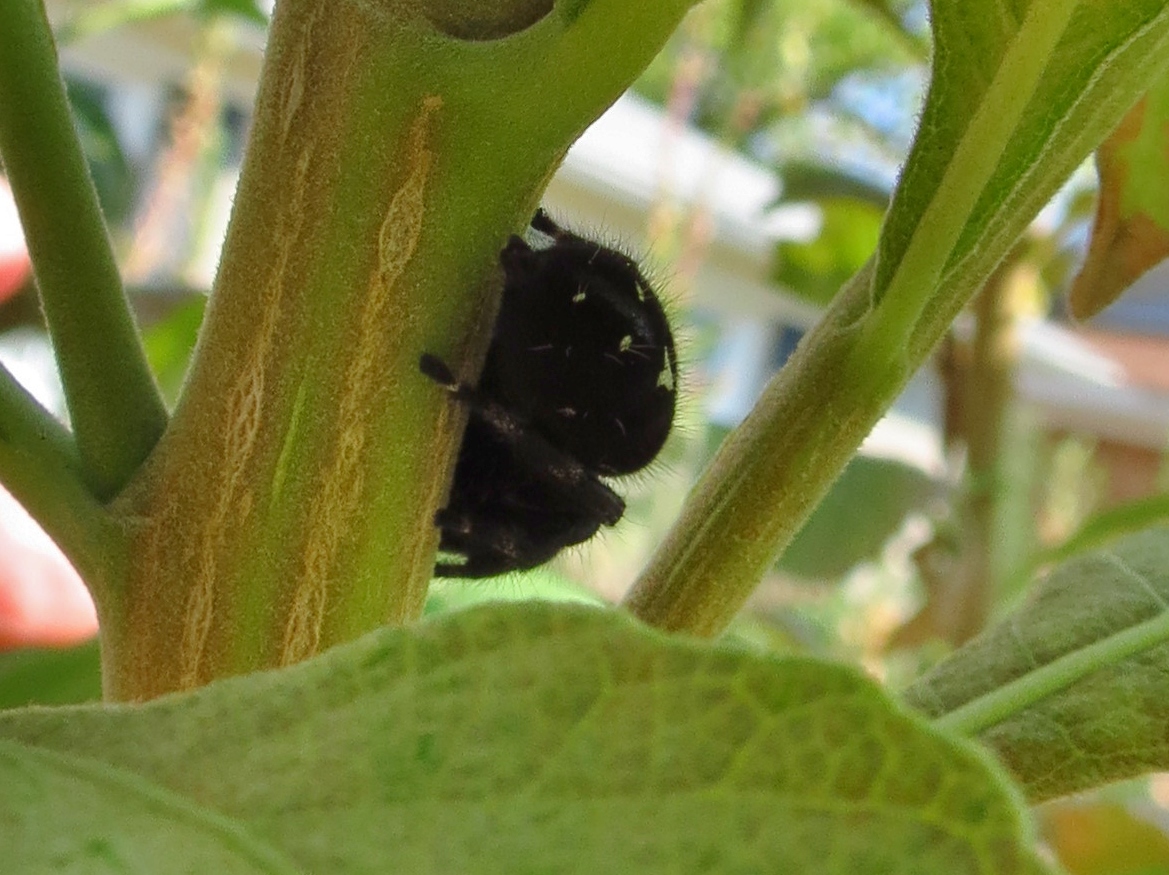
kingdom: Animalia
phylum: Arthropoda
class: Arachnida
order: Araneae
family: Salticidae
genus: Phidippus
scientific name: Phidippus audax
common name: Bold jumper
